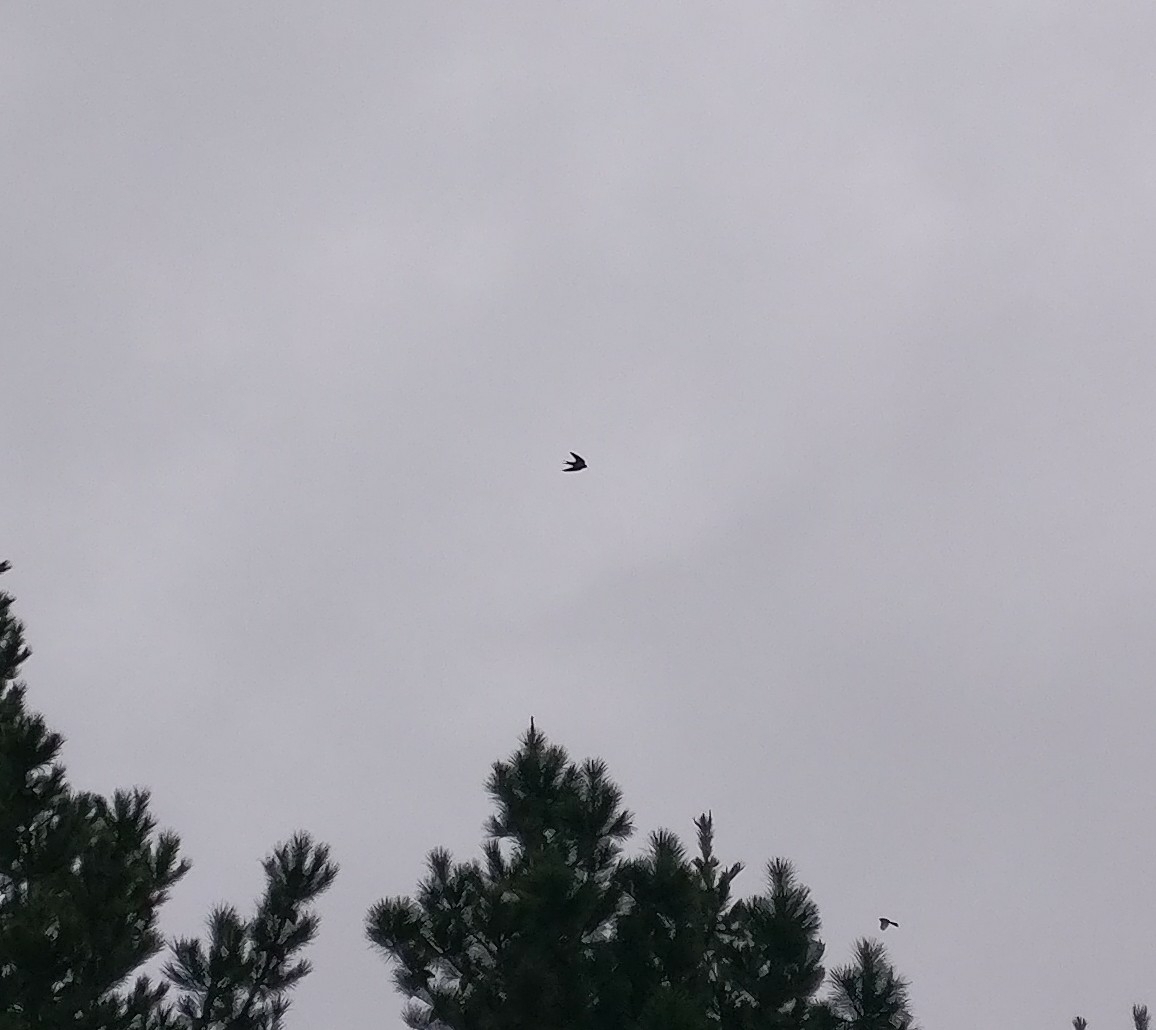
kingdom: Animalia
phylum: Chordata
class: Aves
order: Passeriformes
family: Hirundinidae
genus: Hirundo
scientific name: Hirundo neoxena
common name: Welcome swallow
